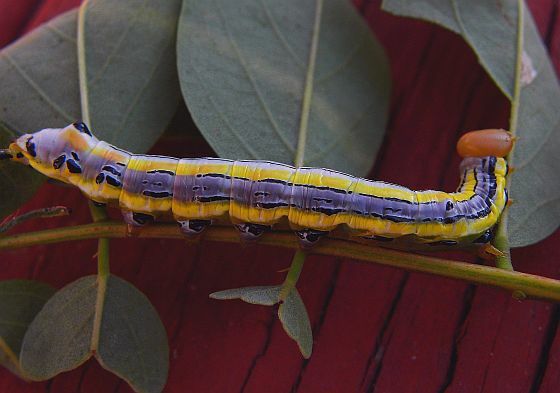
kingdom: Animalia
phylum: Arthropoda
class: Insecta
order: Lepidoptera
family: Notodontidae
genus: Dasylophia
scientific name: Dasylophia anguina
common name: Black-spotted prominent
